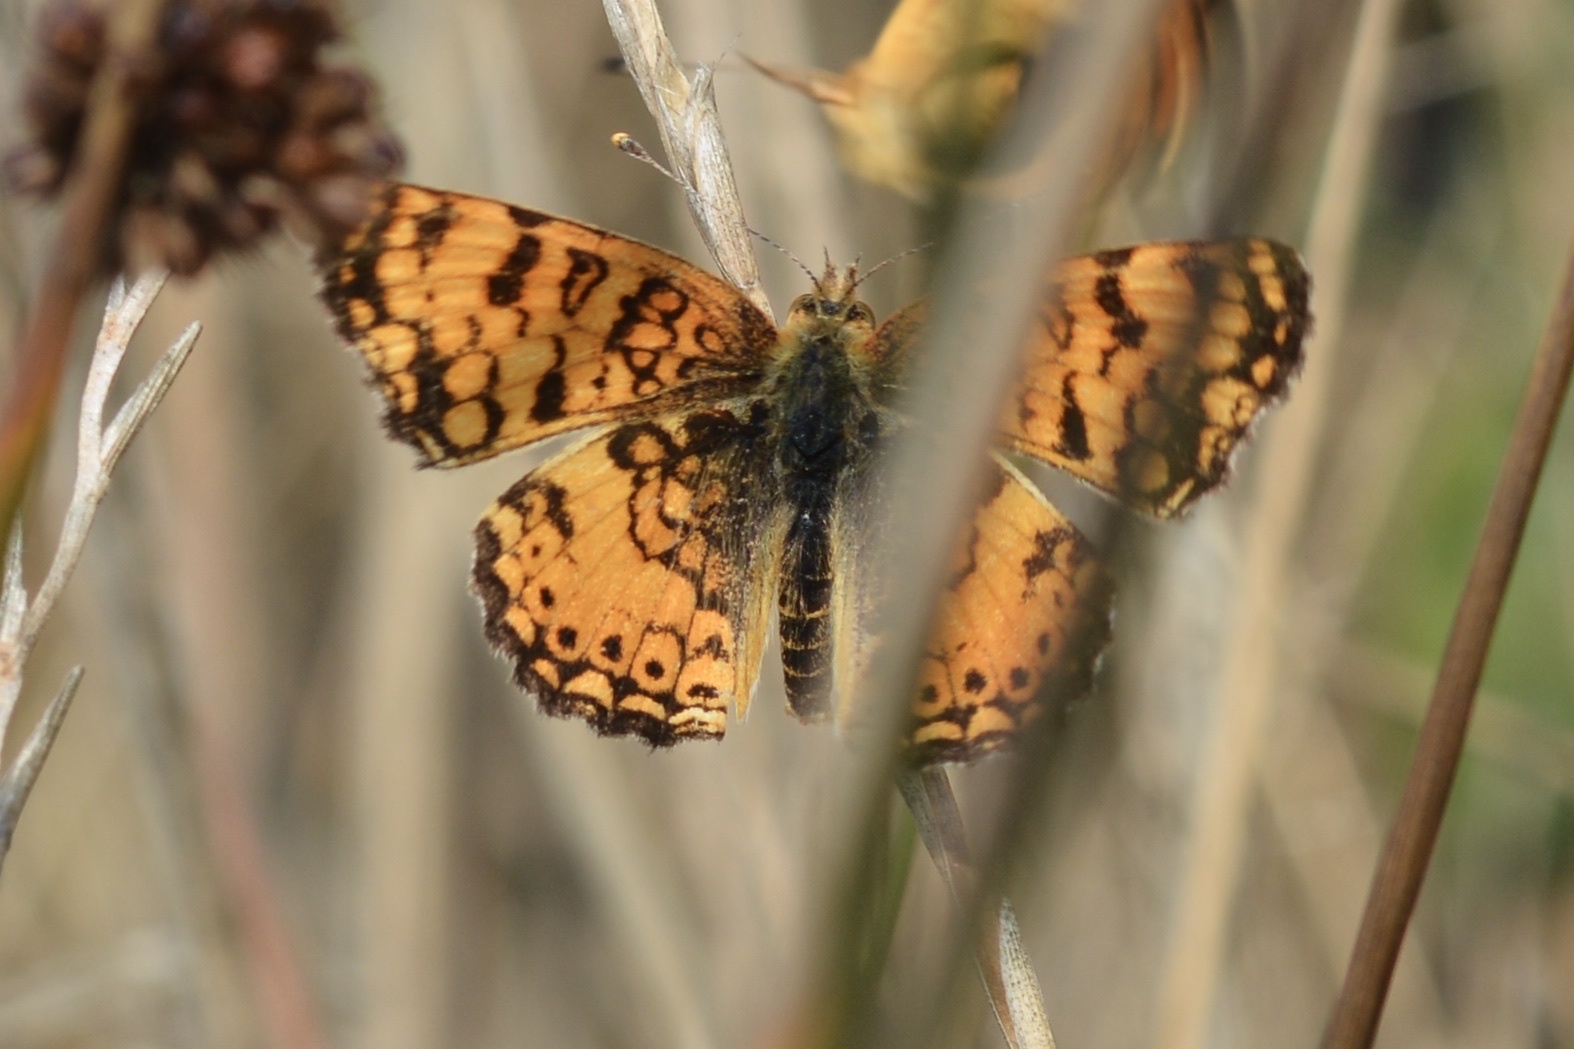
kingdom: Animalia
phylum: Arthropoda
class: Insecta
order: Lepidoptera
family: Nymphalidae
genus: Eresia
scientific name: Eresia aveyrona
